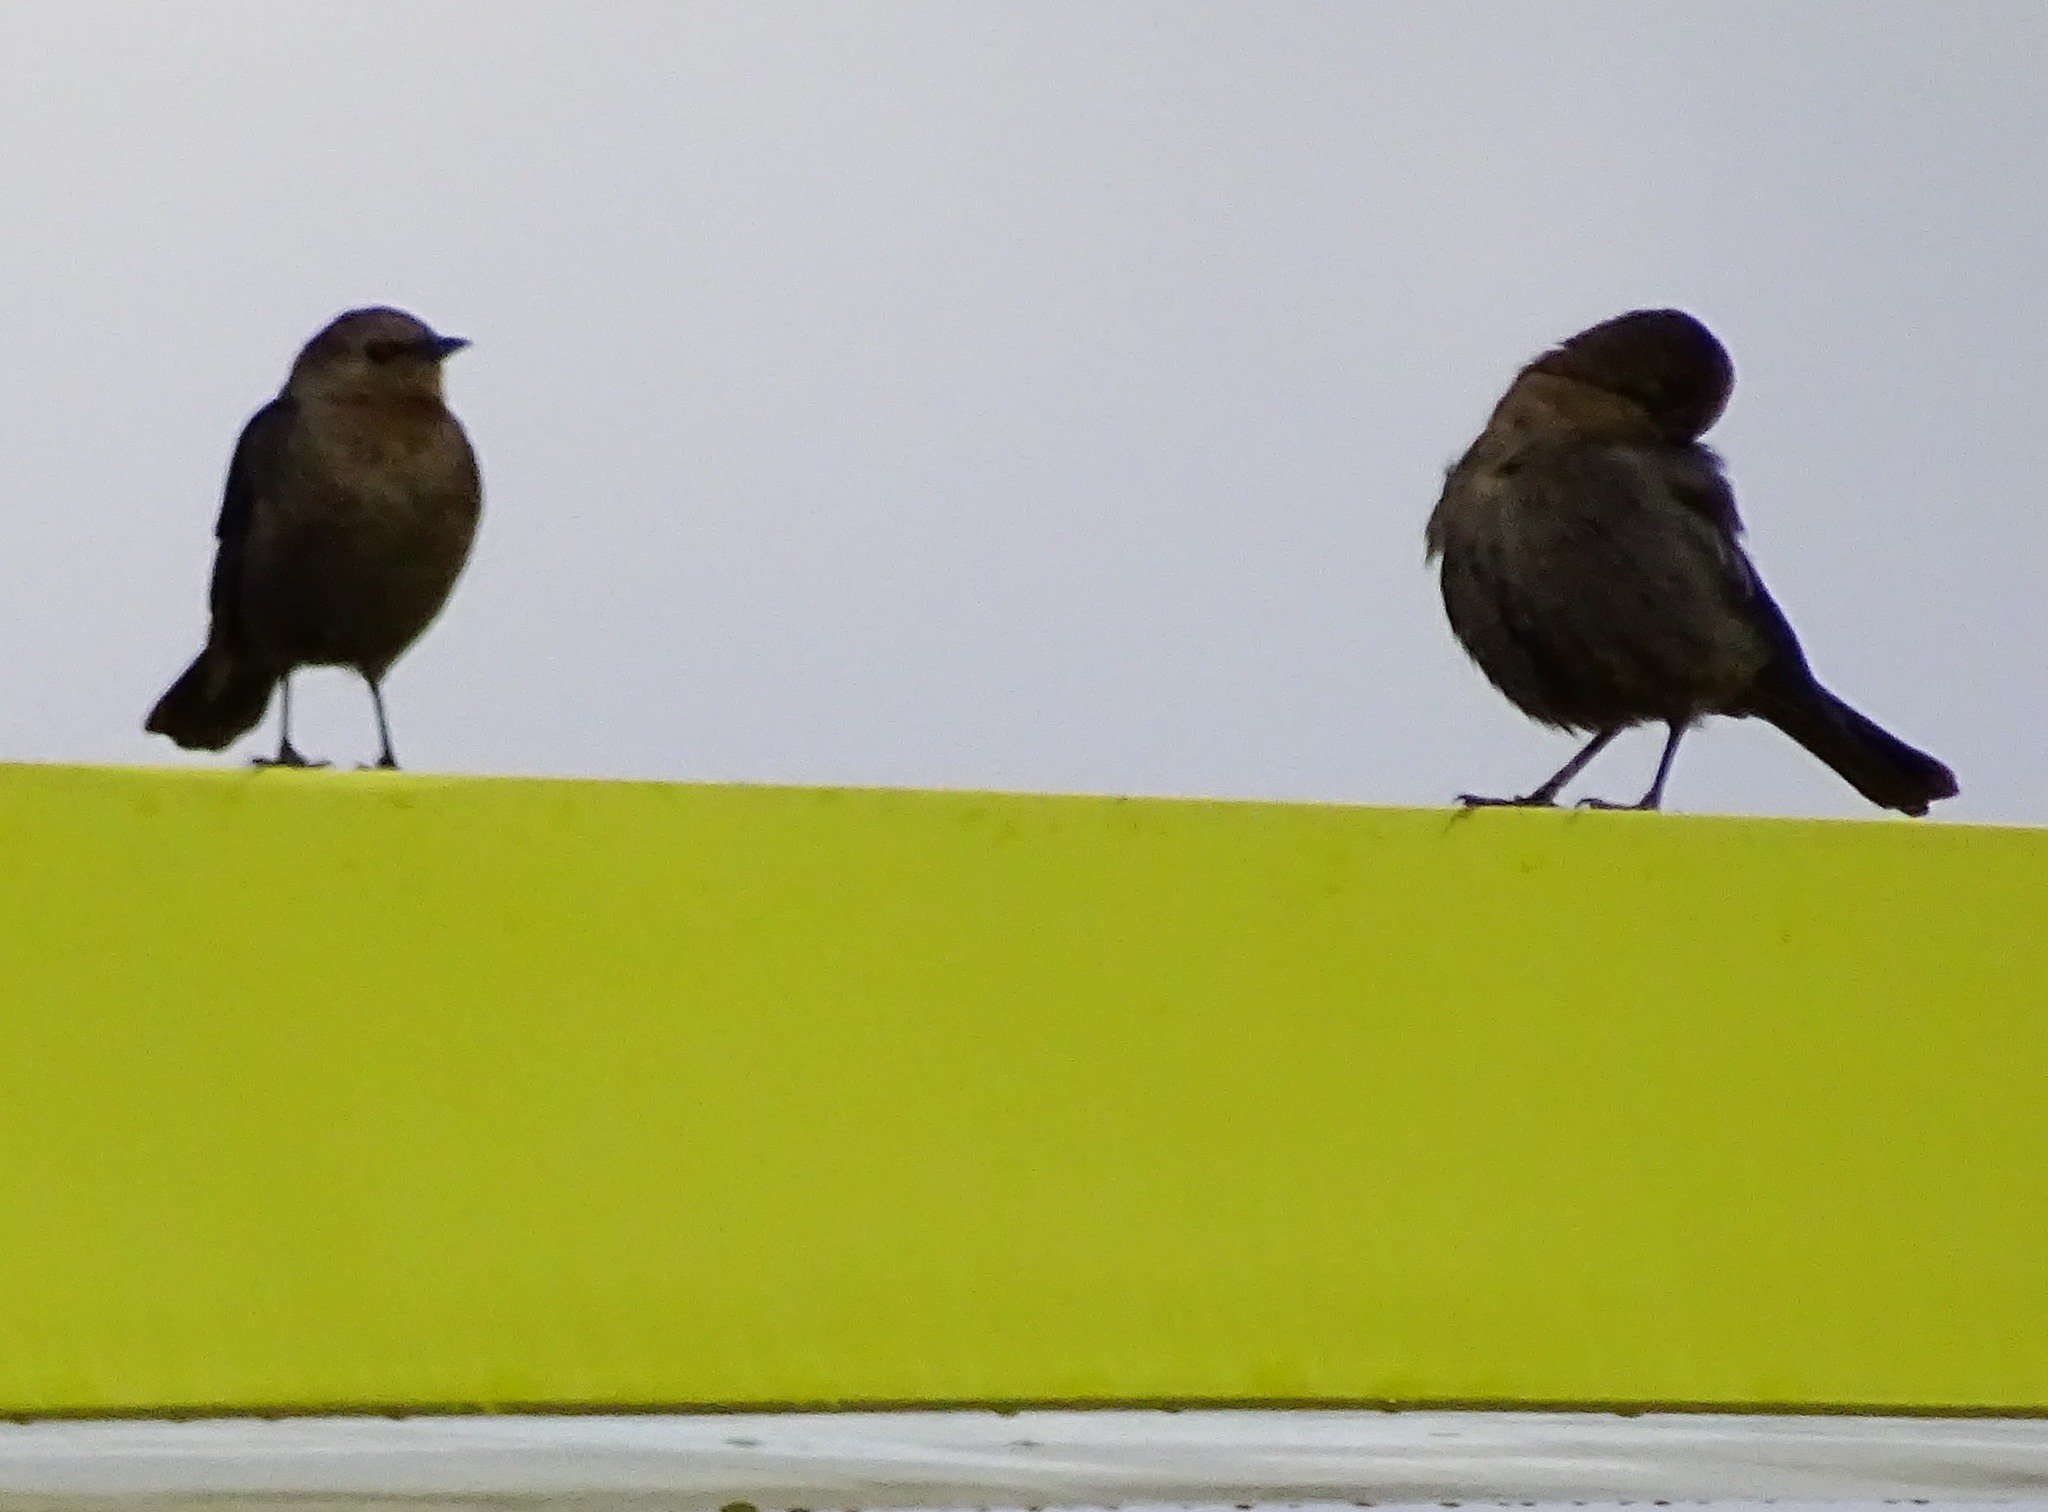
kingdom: Animalia
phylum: Chordata
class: Aves
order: Passeriformes
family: Icteridae
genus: Euphagus
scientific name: Euphagus cyanocephalus
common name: Brewer's blackbird
